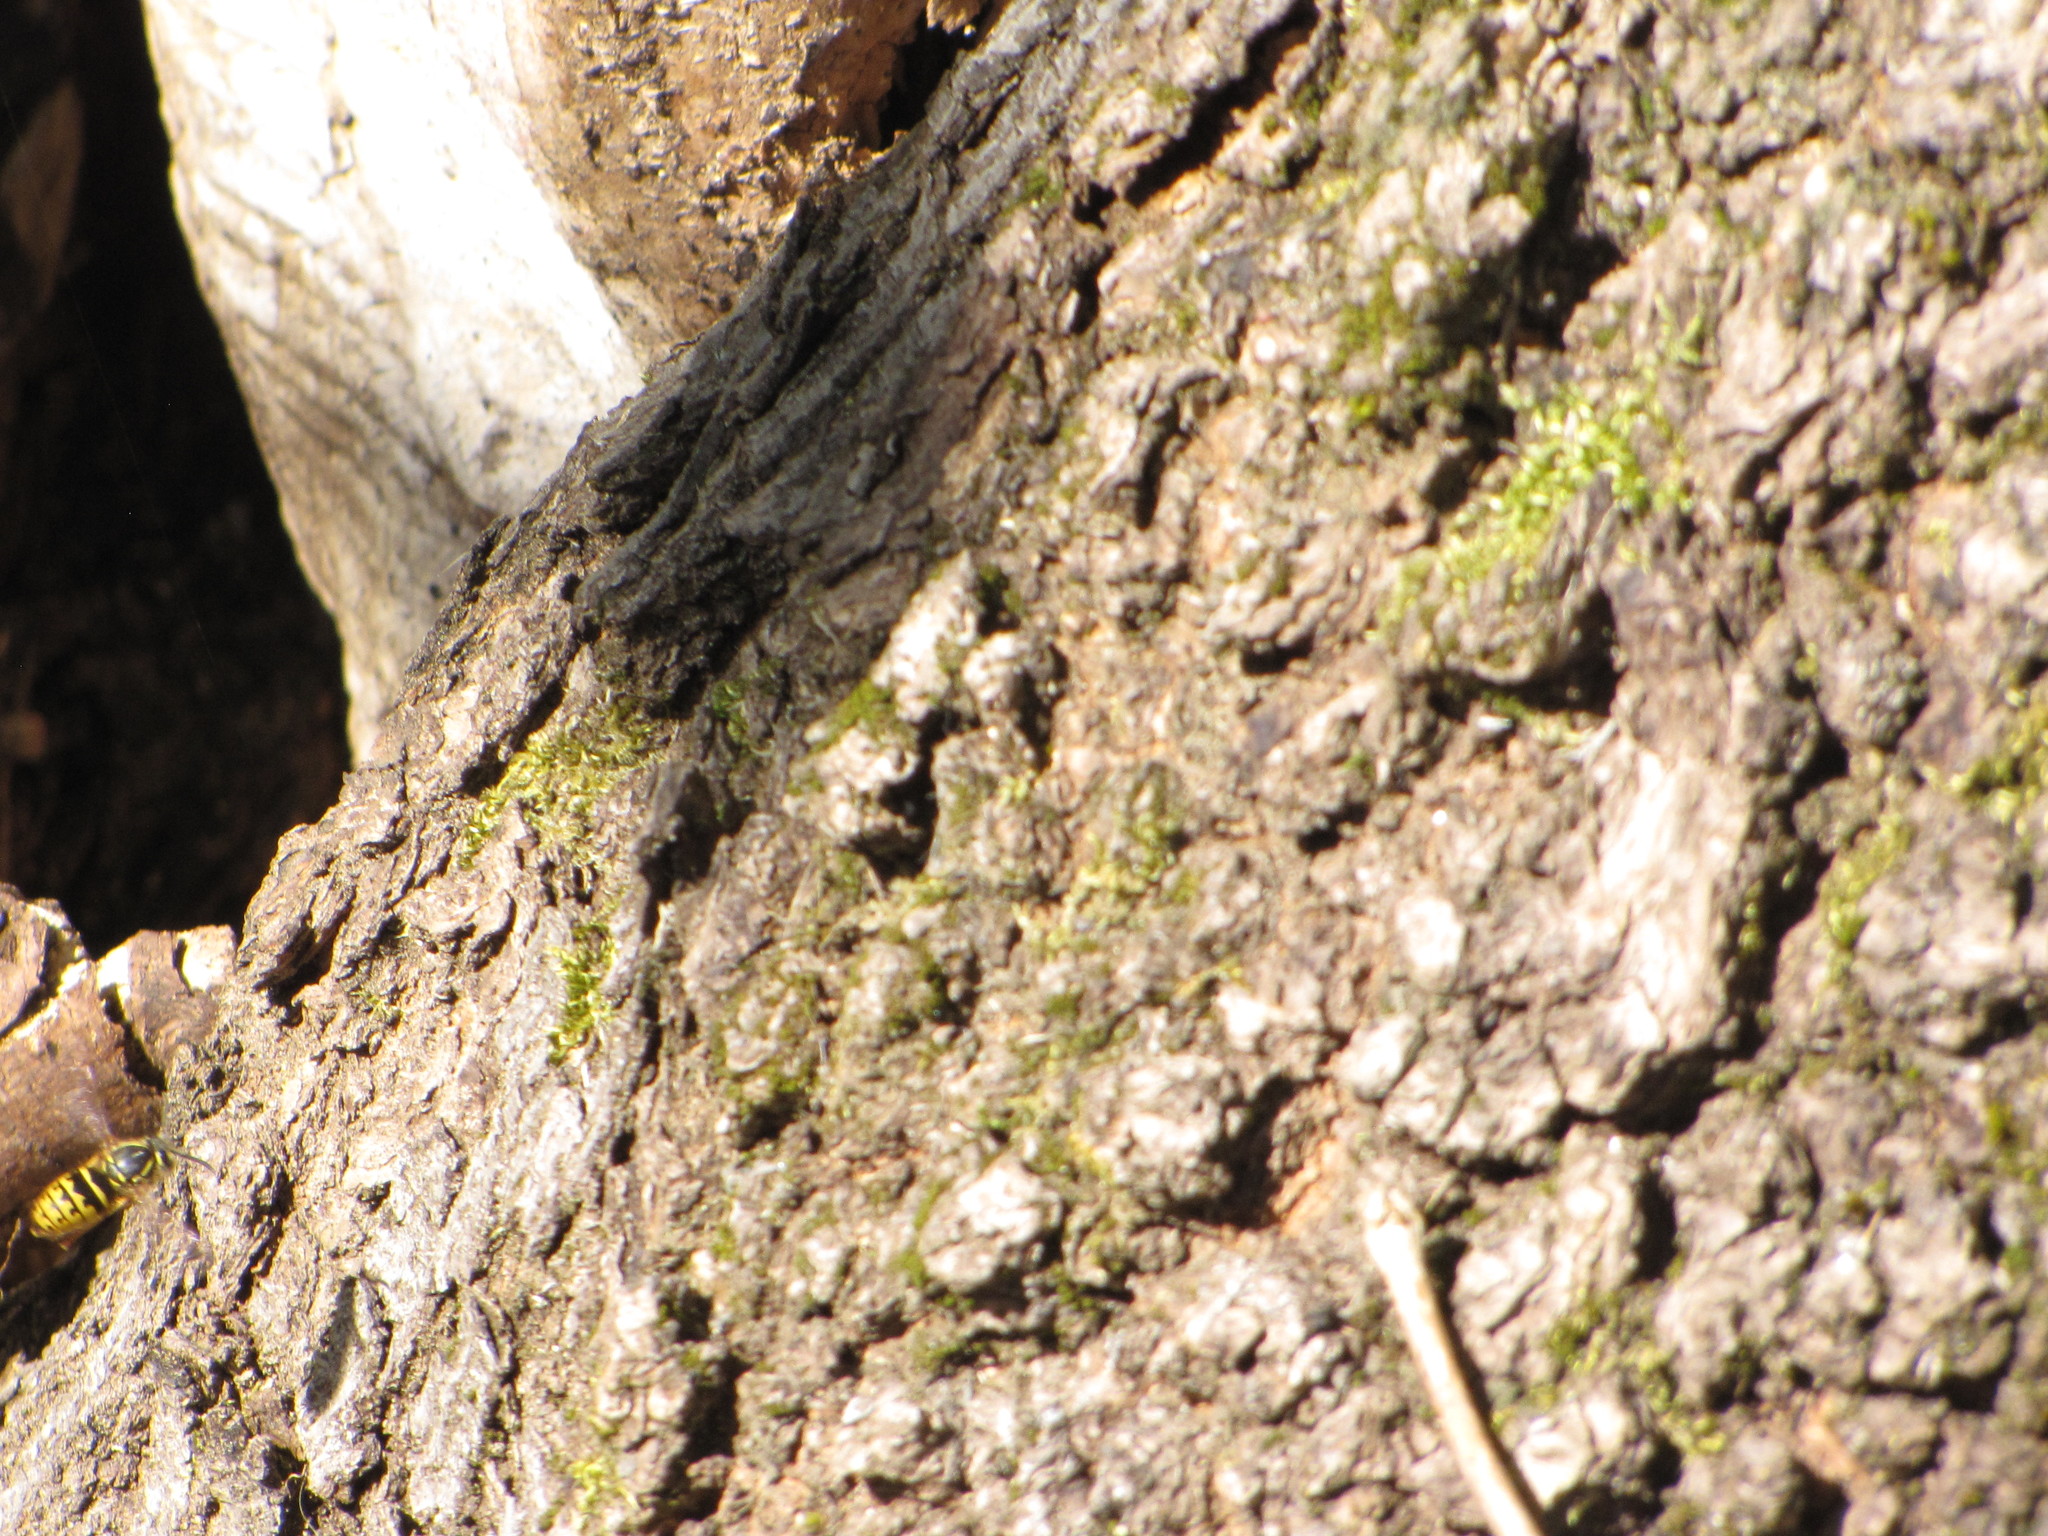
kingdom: Animalia
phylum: Arthropoda
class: Insecta
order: Hymenoptera
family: Vespidae
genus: Vespula
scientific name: Vespula alascensis
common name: Alaska yellowjacket
